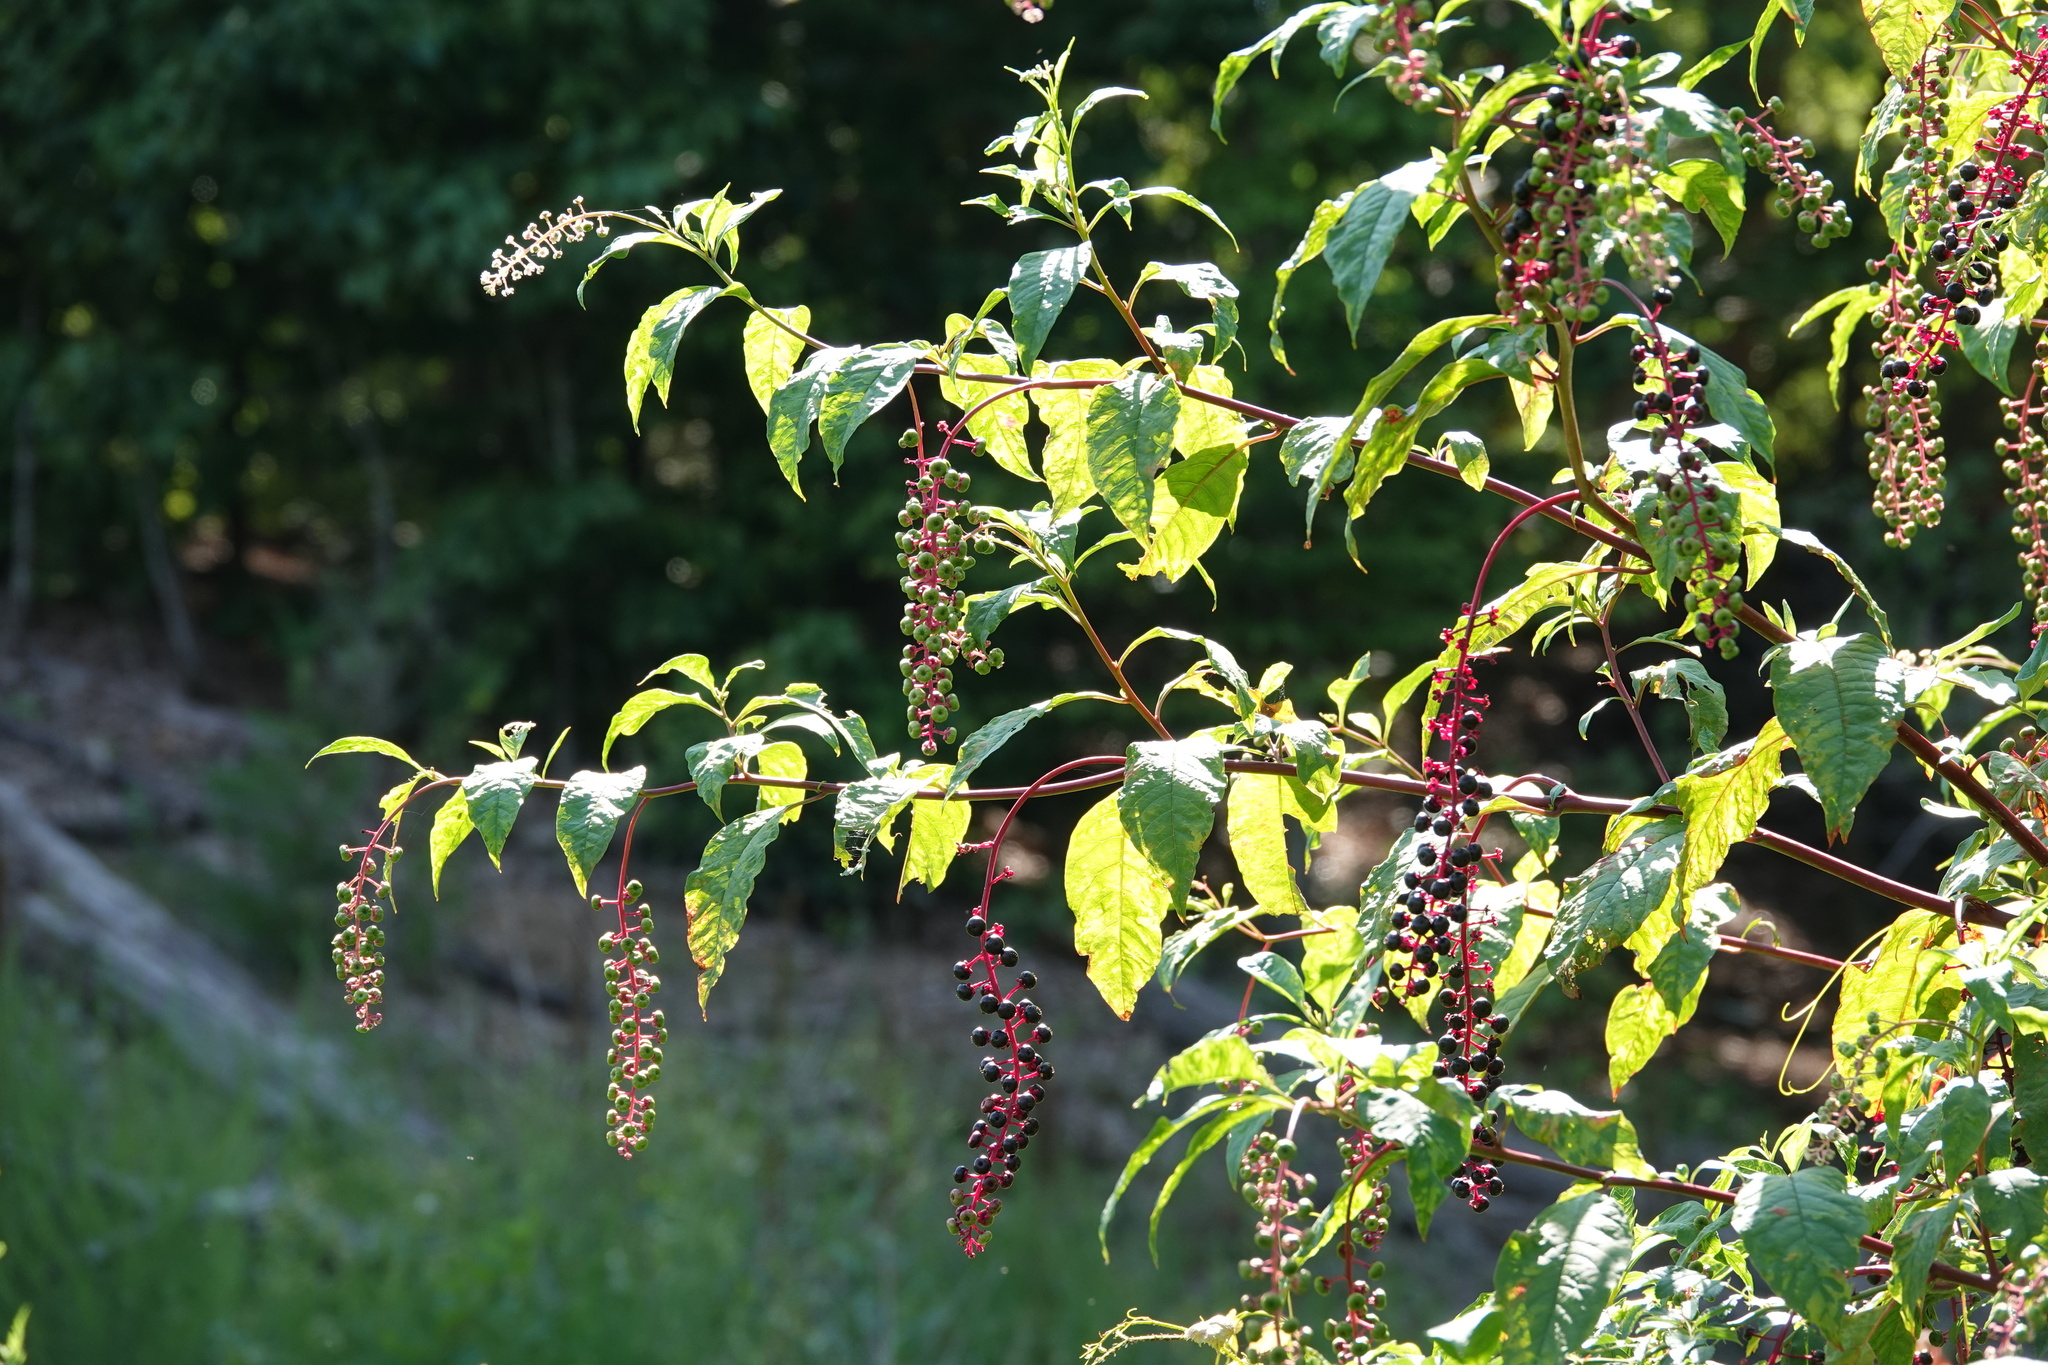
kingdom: Plantae
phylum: Tracheophyta
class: Magnoliopsida
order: Caryophyllales
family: Phytolaccaceae
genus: Phytolacca
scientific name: Phytolacca americana
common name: American pokeweed
